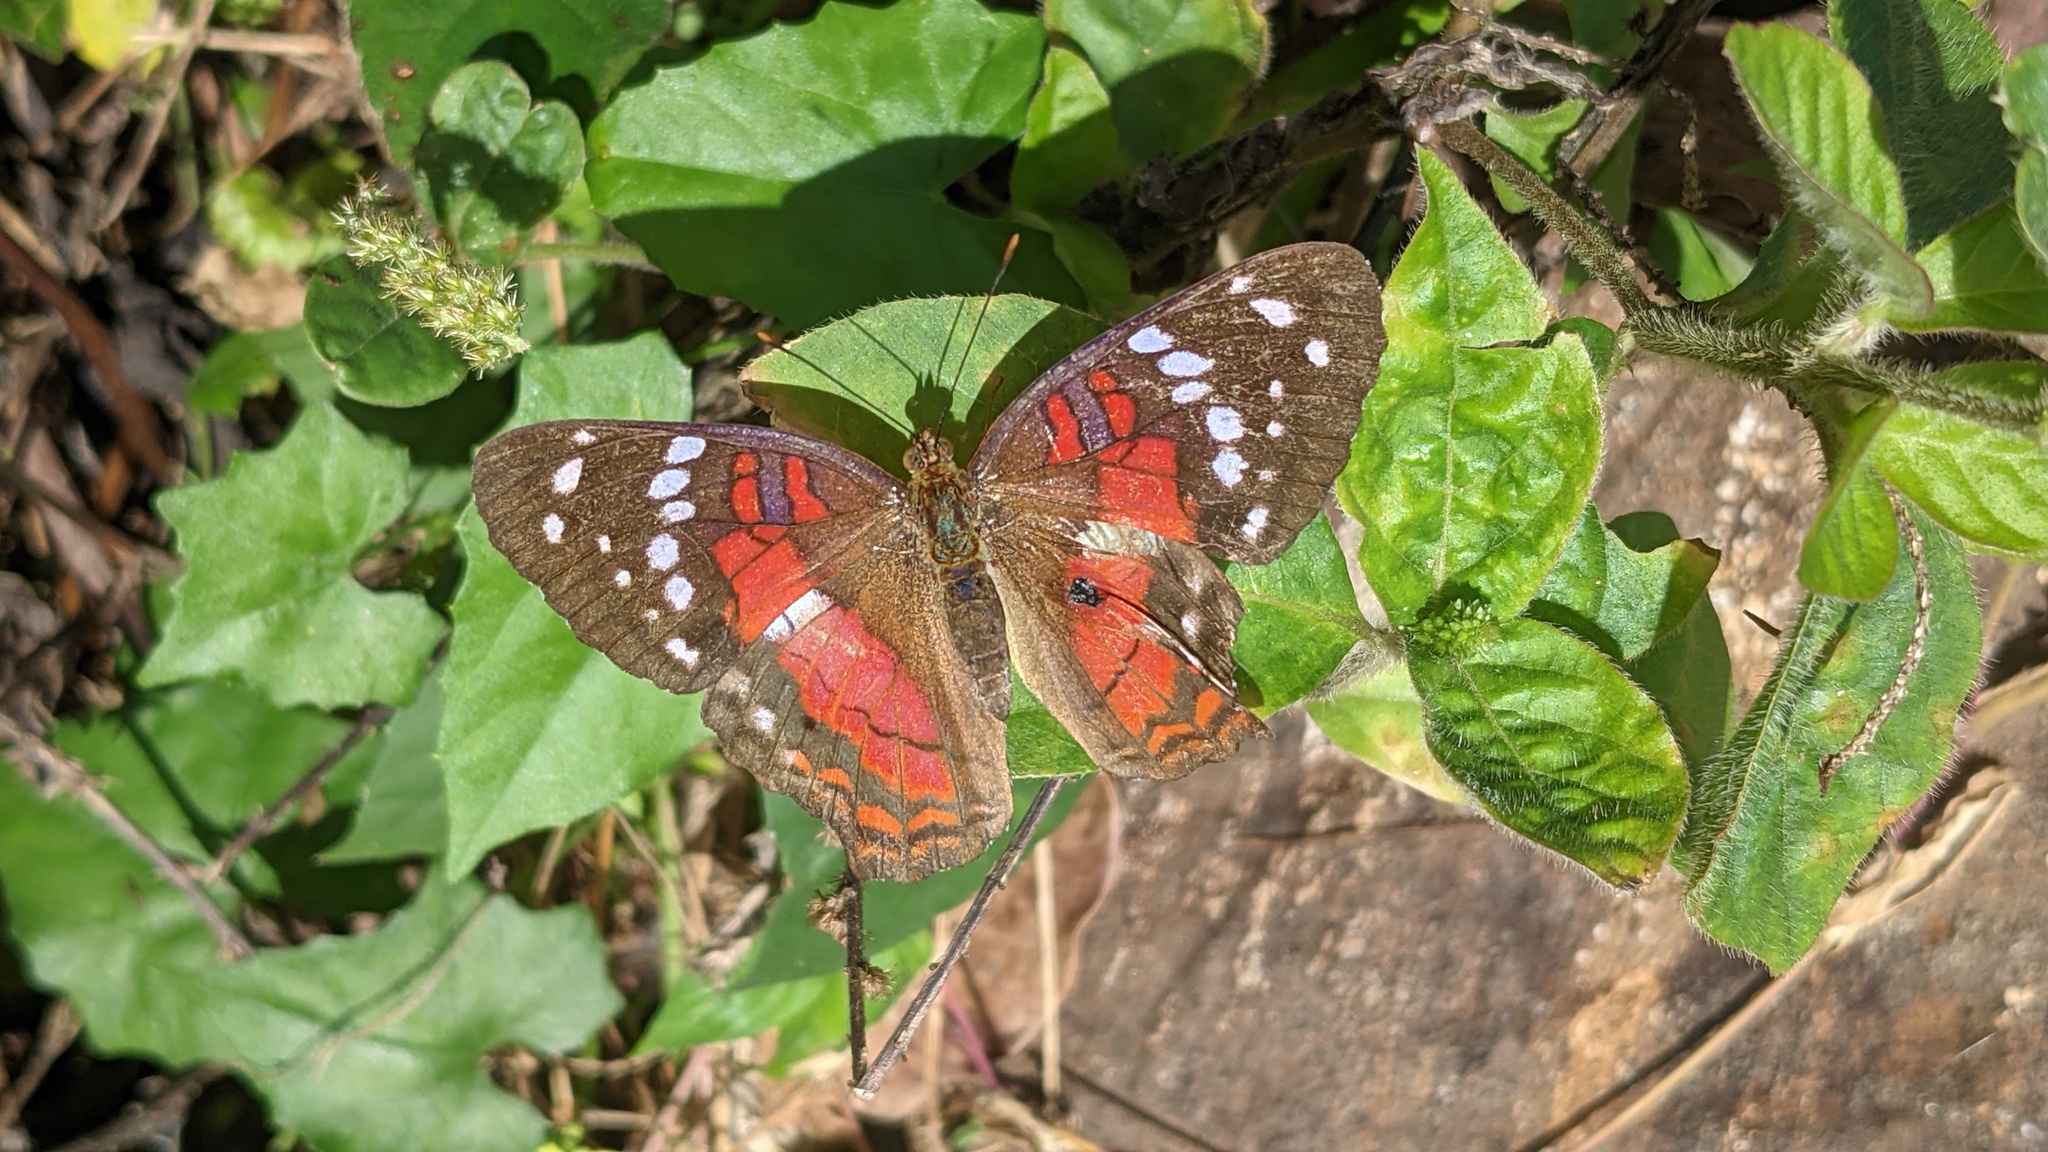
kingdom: Animalia
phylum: Arthropoda
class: Insecta
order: Lepidoptera
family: Nymphalidae
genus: Anartia
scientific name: Anartia amathea
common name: Red peacock
